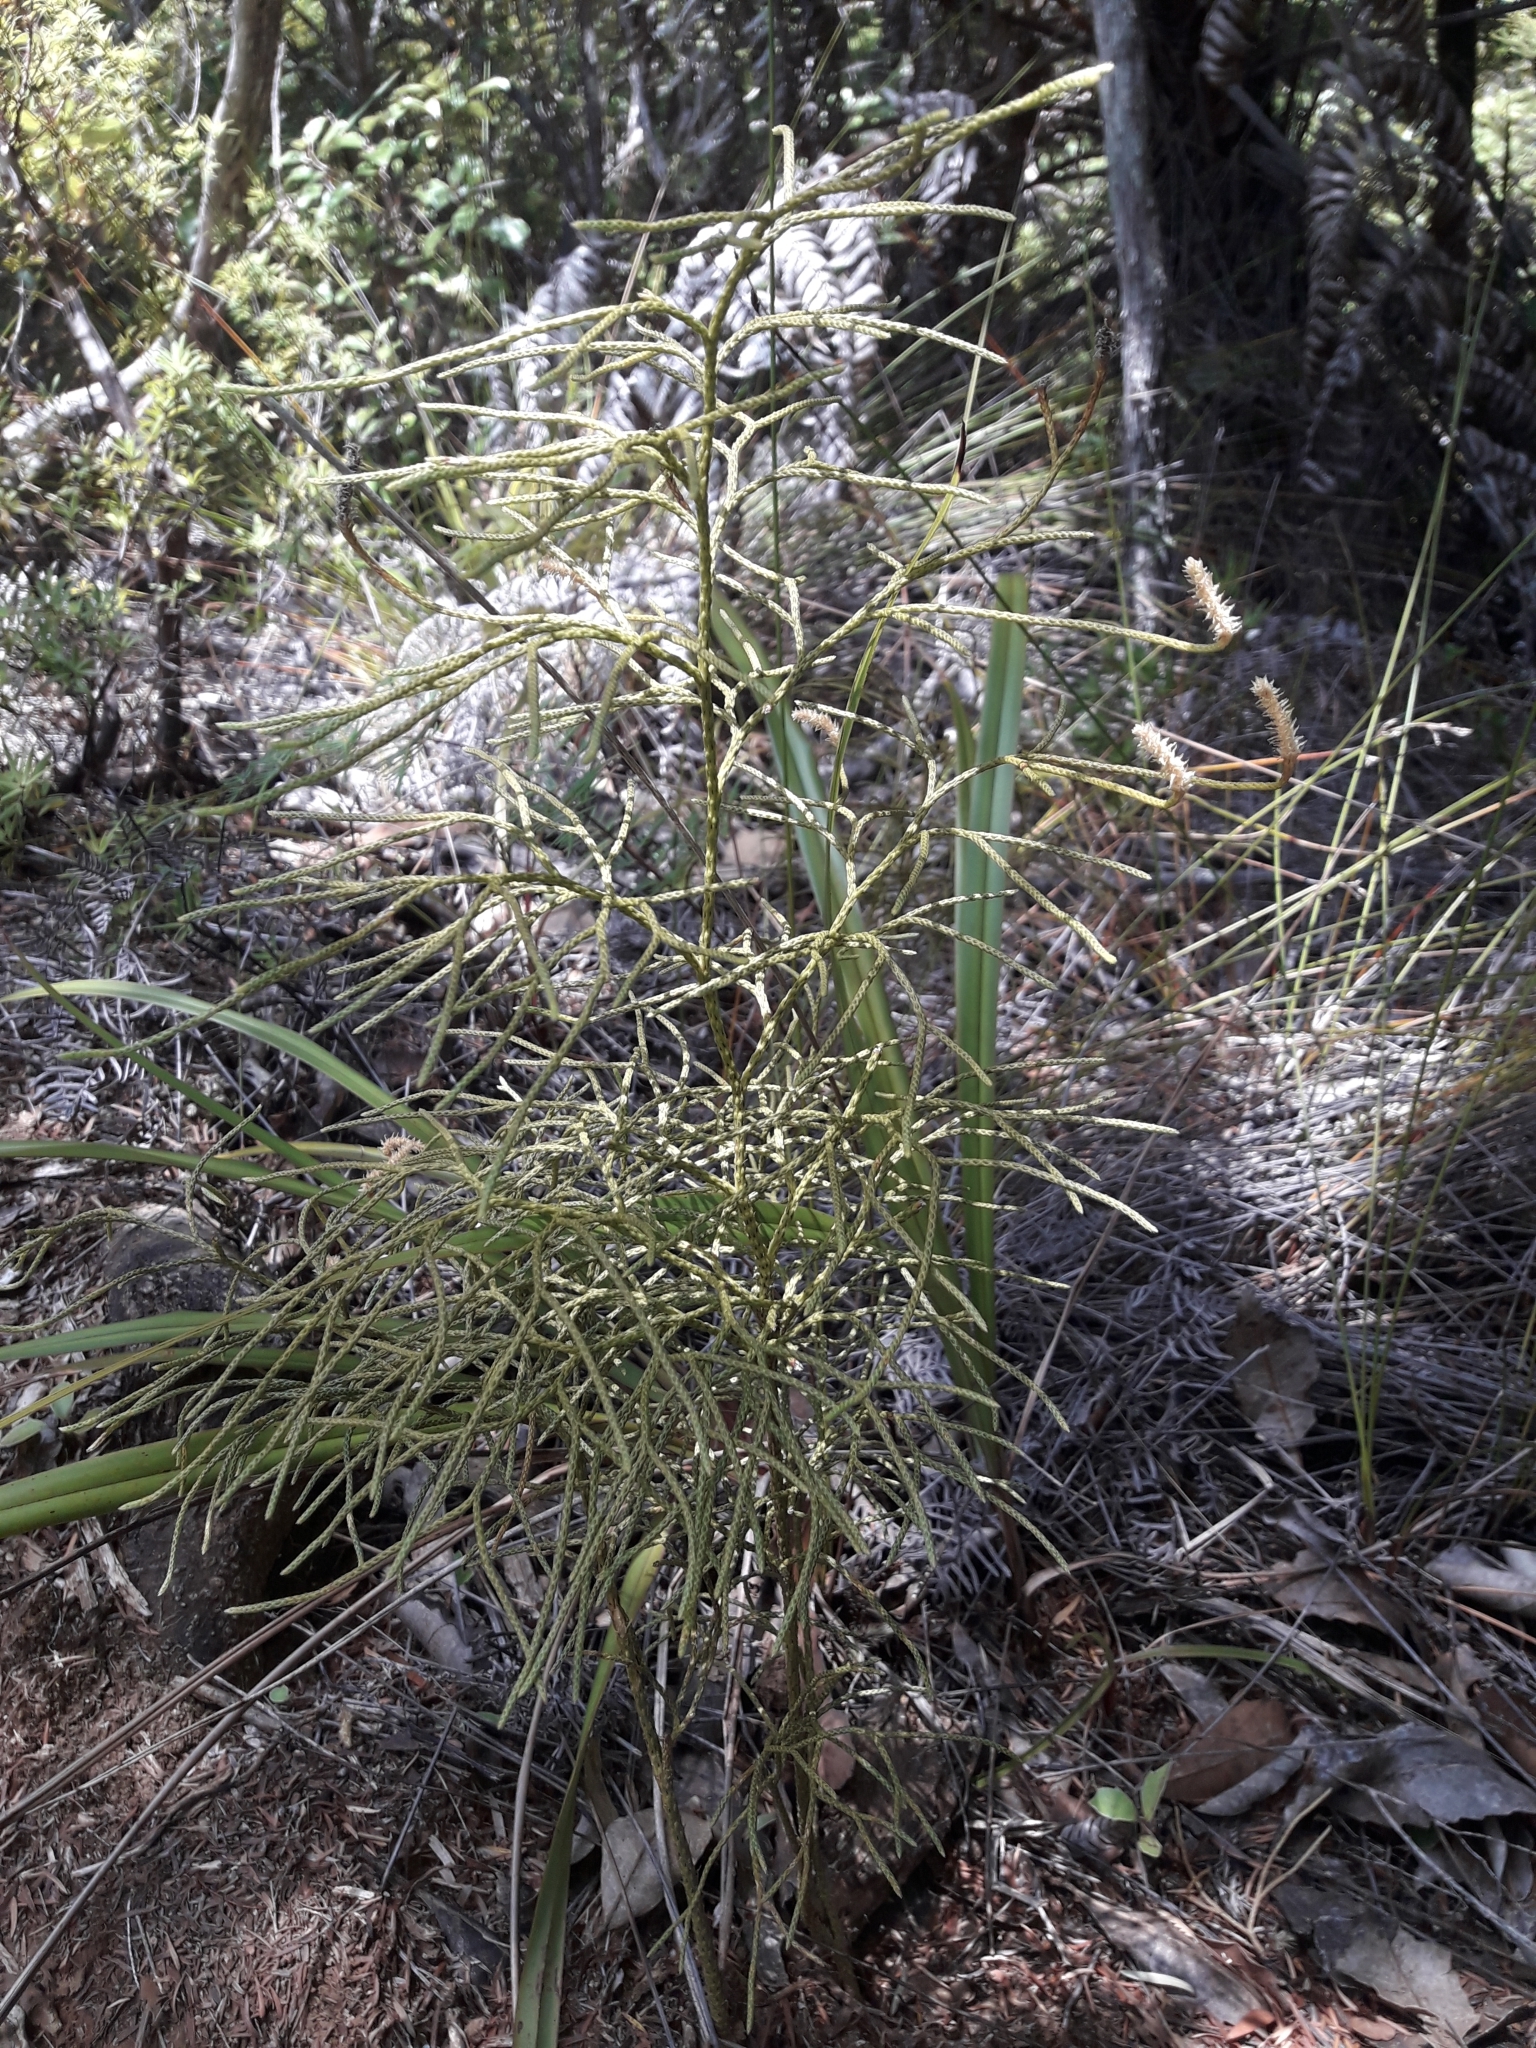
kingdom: Plantae
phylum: Tracheophyta
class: Lycopodiopsida
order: Lycopodiales
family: Lycopodiaceae
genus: Pseudolycopodium
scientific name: Pseudolycopodium densum
